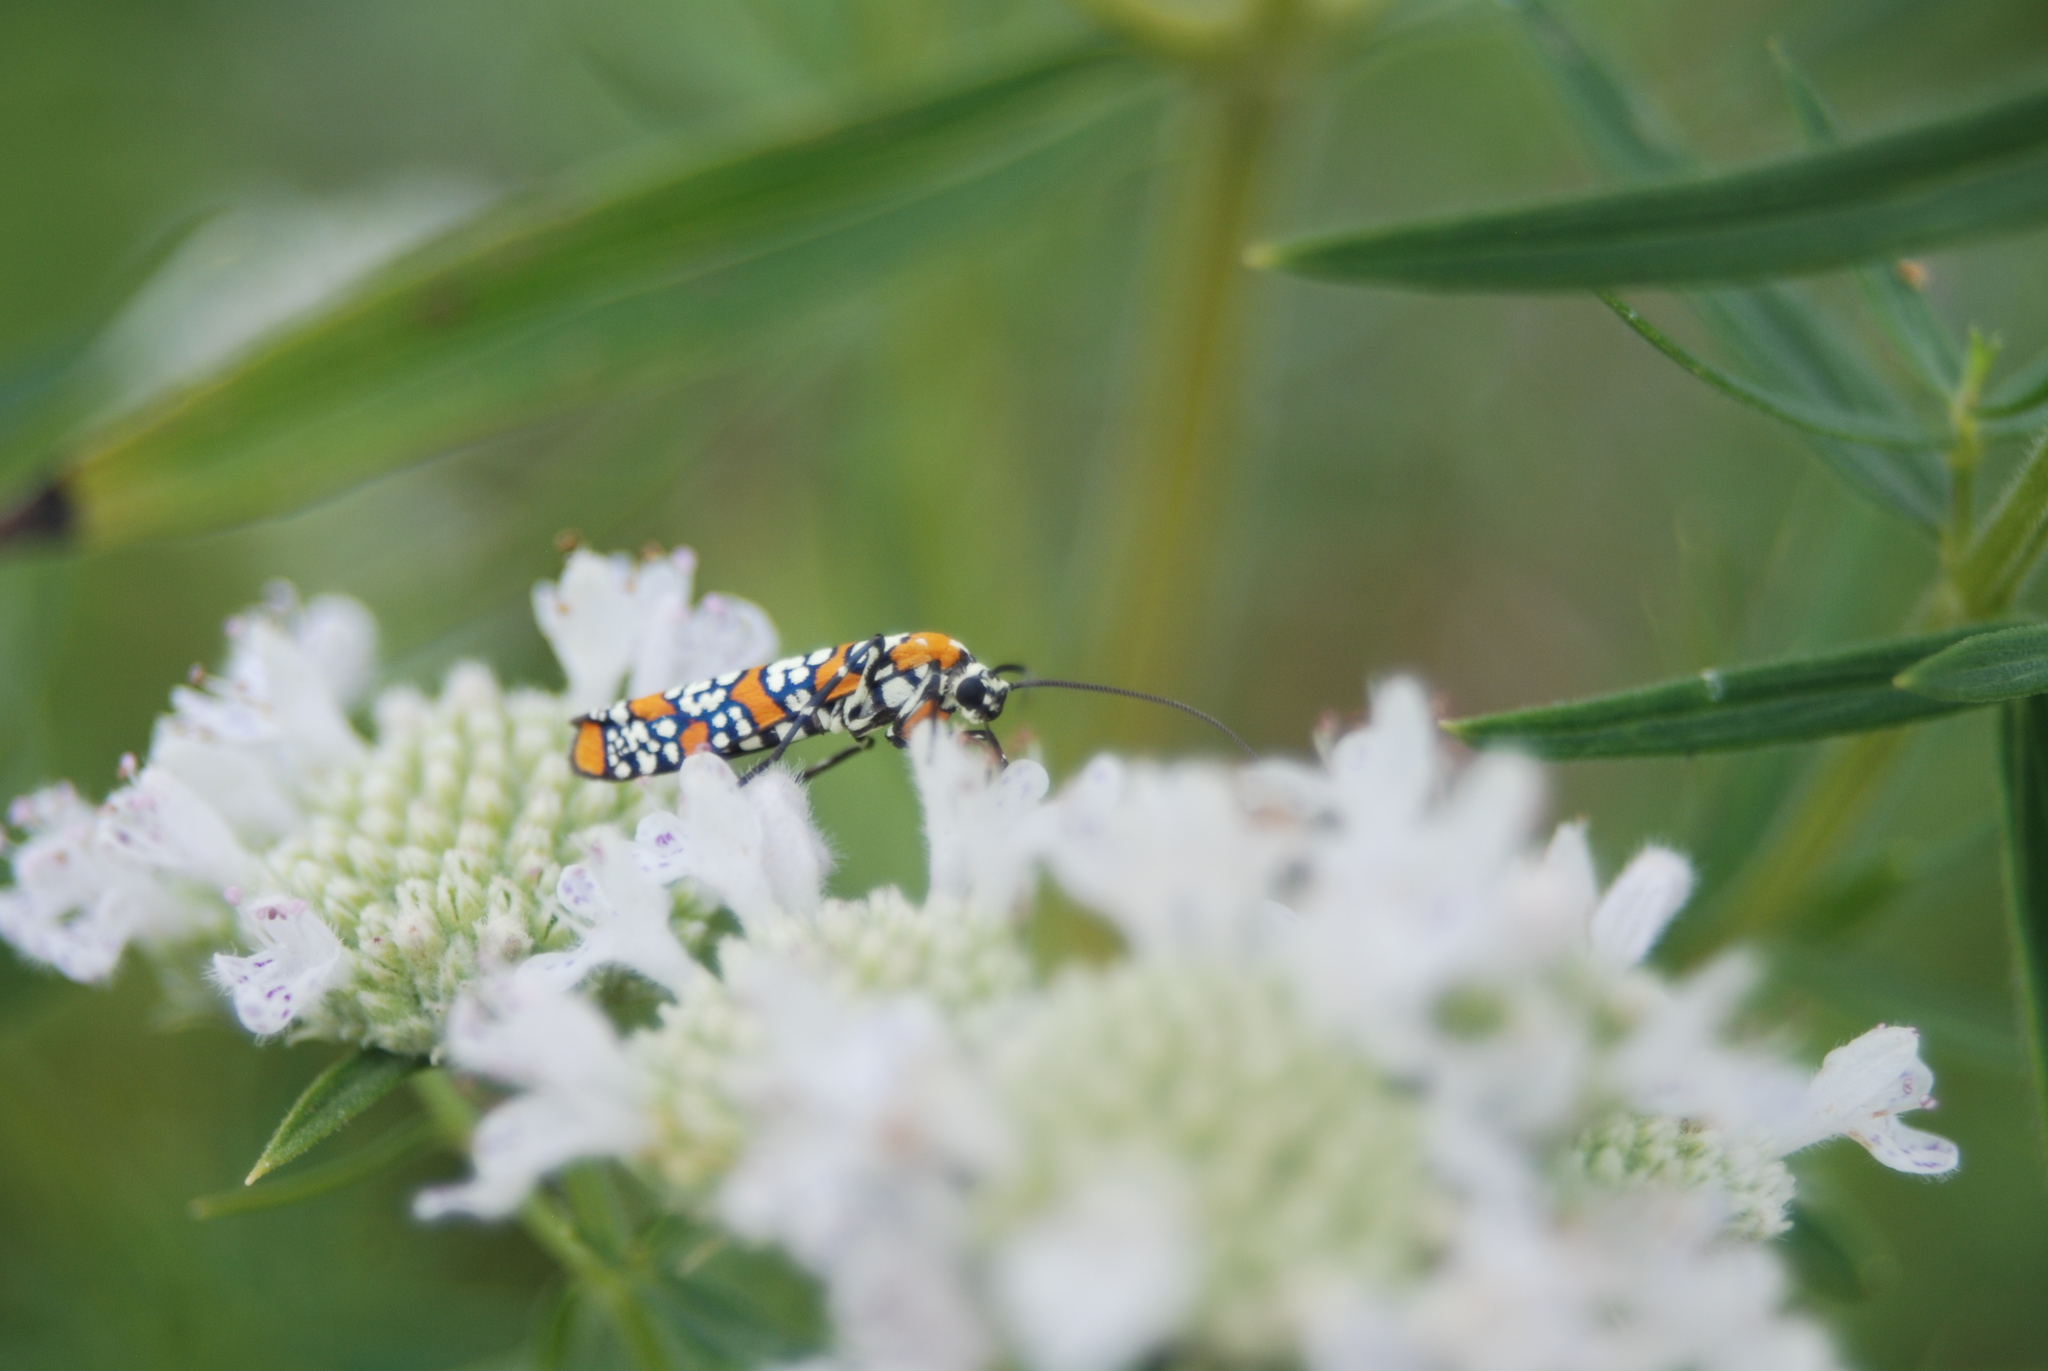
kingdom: Animalia
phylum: Arthropoda
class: Insecta
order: Lepidoptera
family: Attevidae
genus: Atteva
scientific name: Atteva punctella
